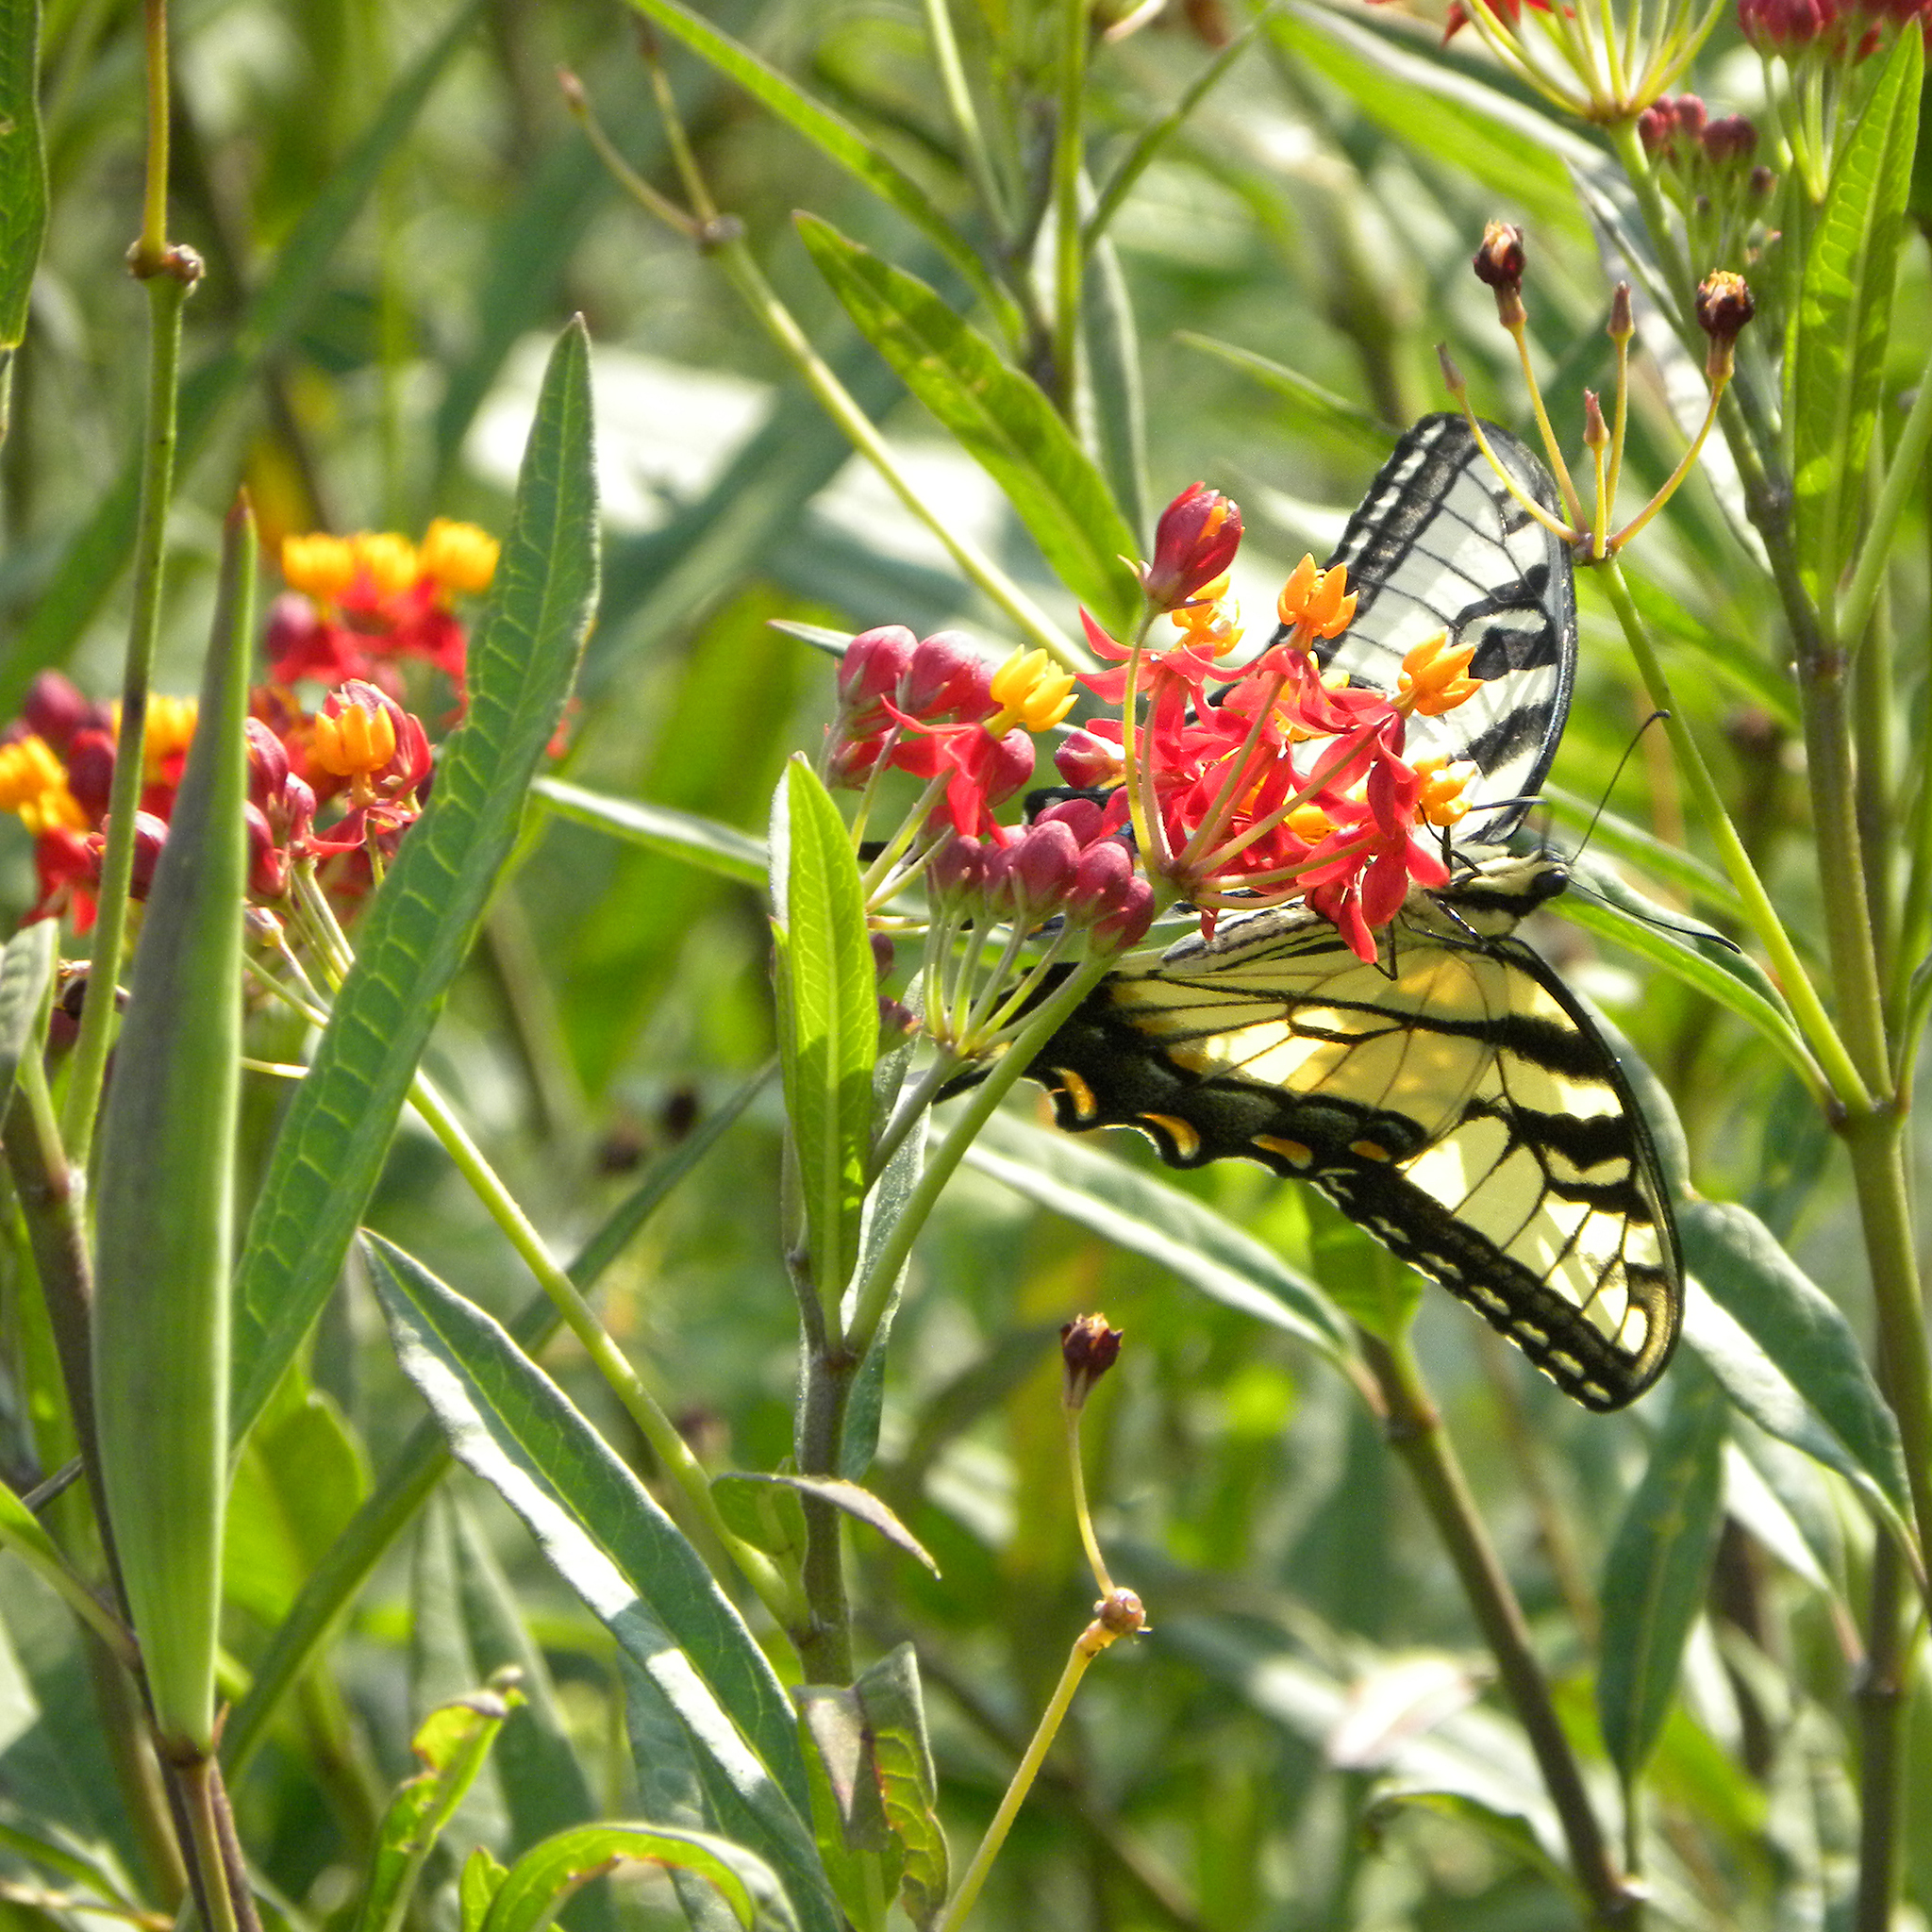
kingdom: Animalia
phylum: Arthropoda
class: Insecta
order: Lepidoptera
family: Papilionidae
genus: Papilio
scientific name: Papilio glaucus
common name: Tiger swallowtail
